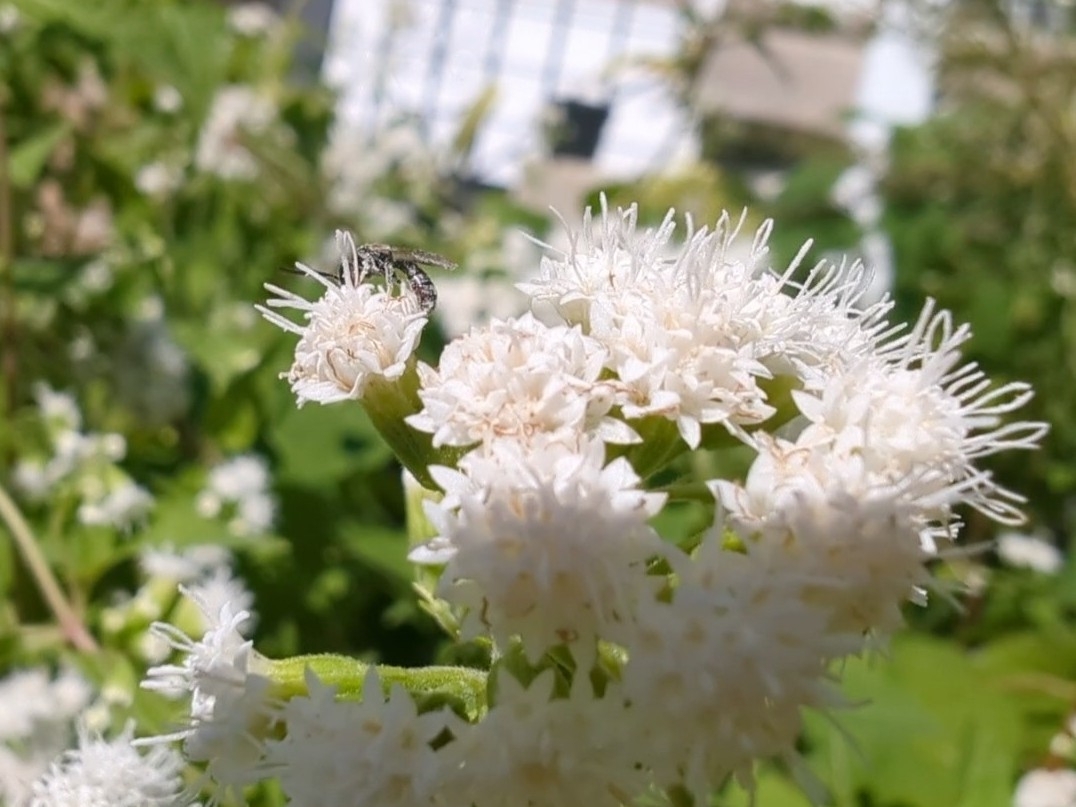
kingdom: Plantae
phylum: Tracheophyta
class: Magnoliopsida
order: Asterales
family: Asteraceae
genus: Ageratina
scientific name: Ageratina altissima
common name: White snakeroot
